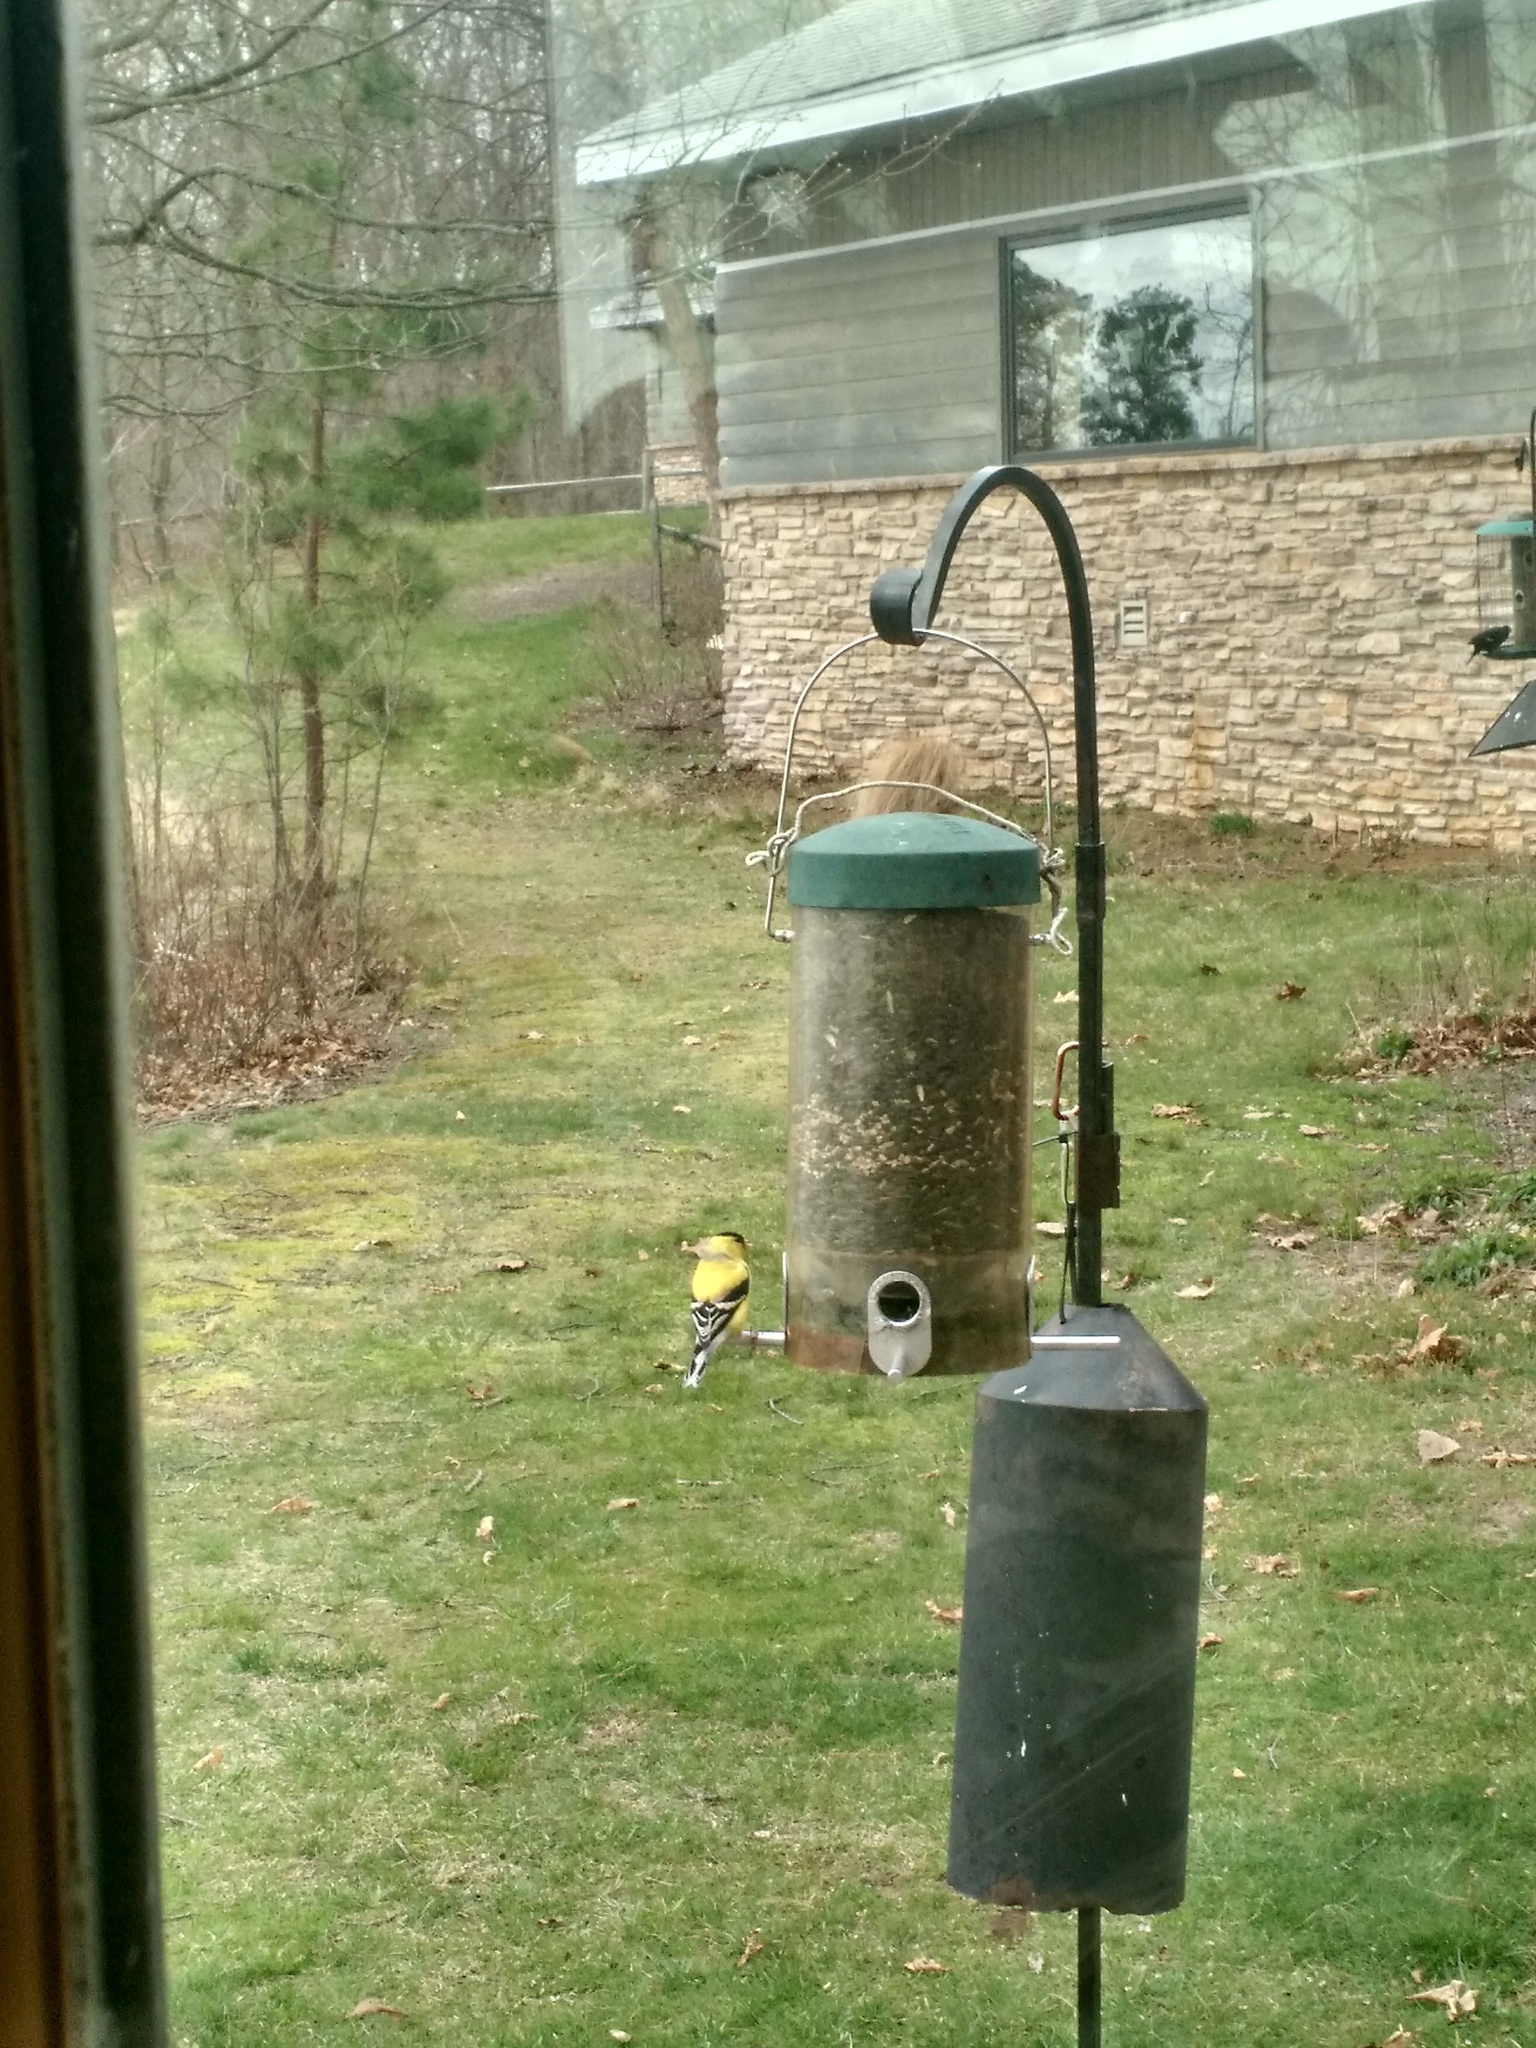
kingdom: Animalia
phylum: Chordata
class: Aves
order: Passeriformes
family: Fringillidae
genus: Spinus
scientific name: Spinus tristis
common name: American goldfinch
